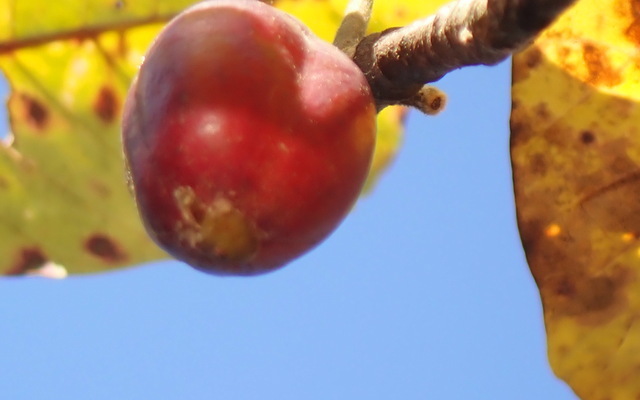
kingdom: Plantae
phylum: Tracheophyta
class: Magnoliopsida
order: Cornales
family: Nyssaceae
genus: Nyssa
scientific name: Nyssa ogeche
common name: Ogeechee tupelo
